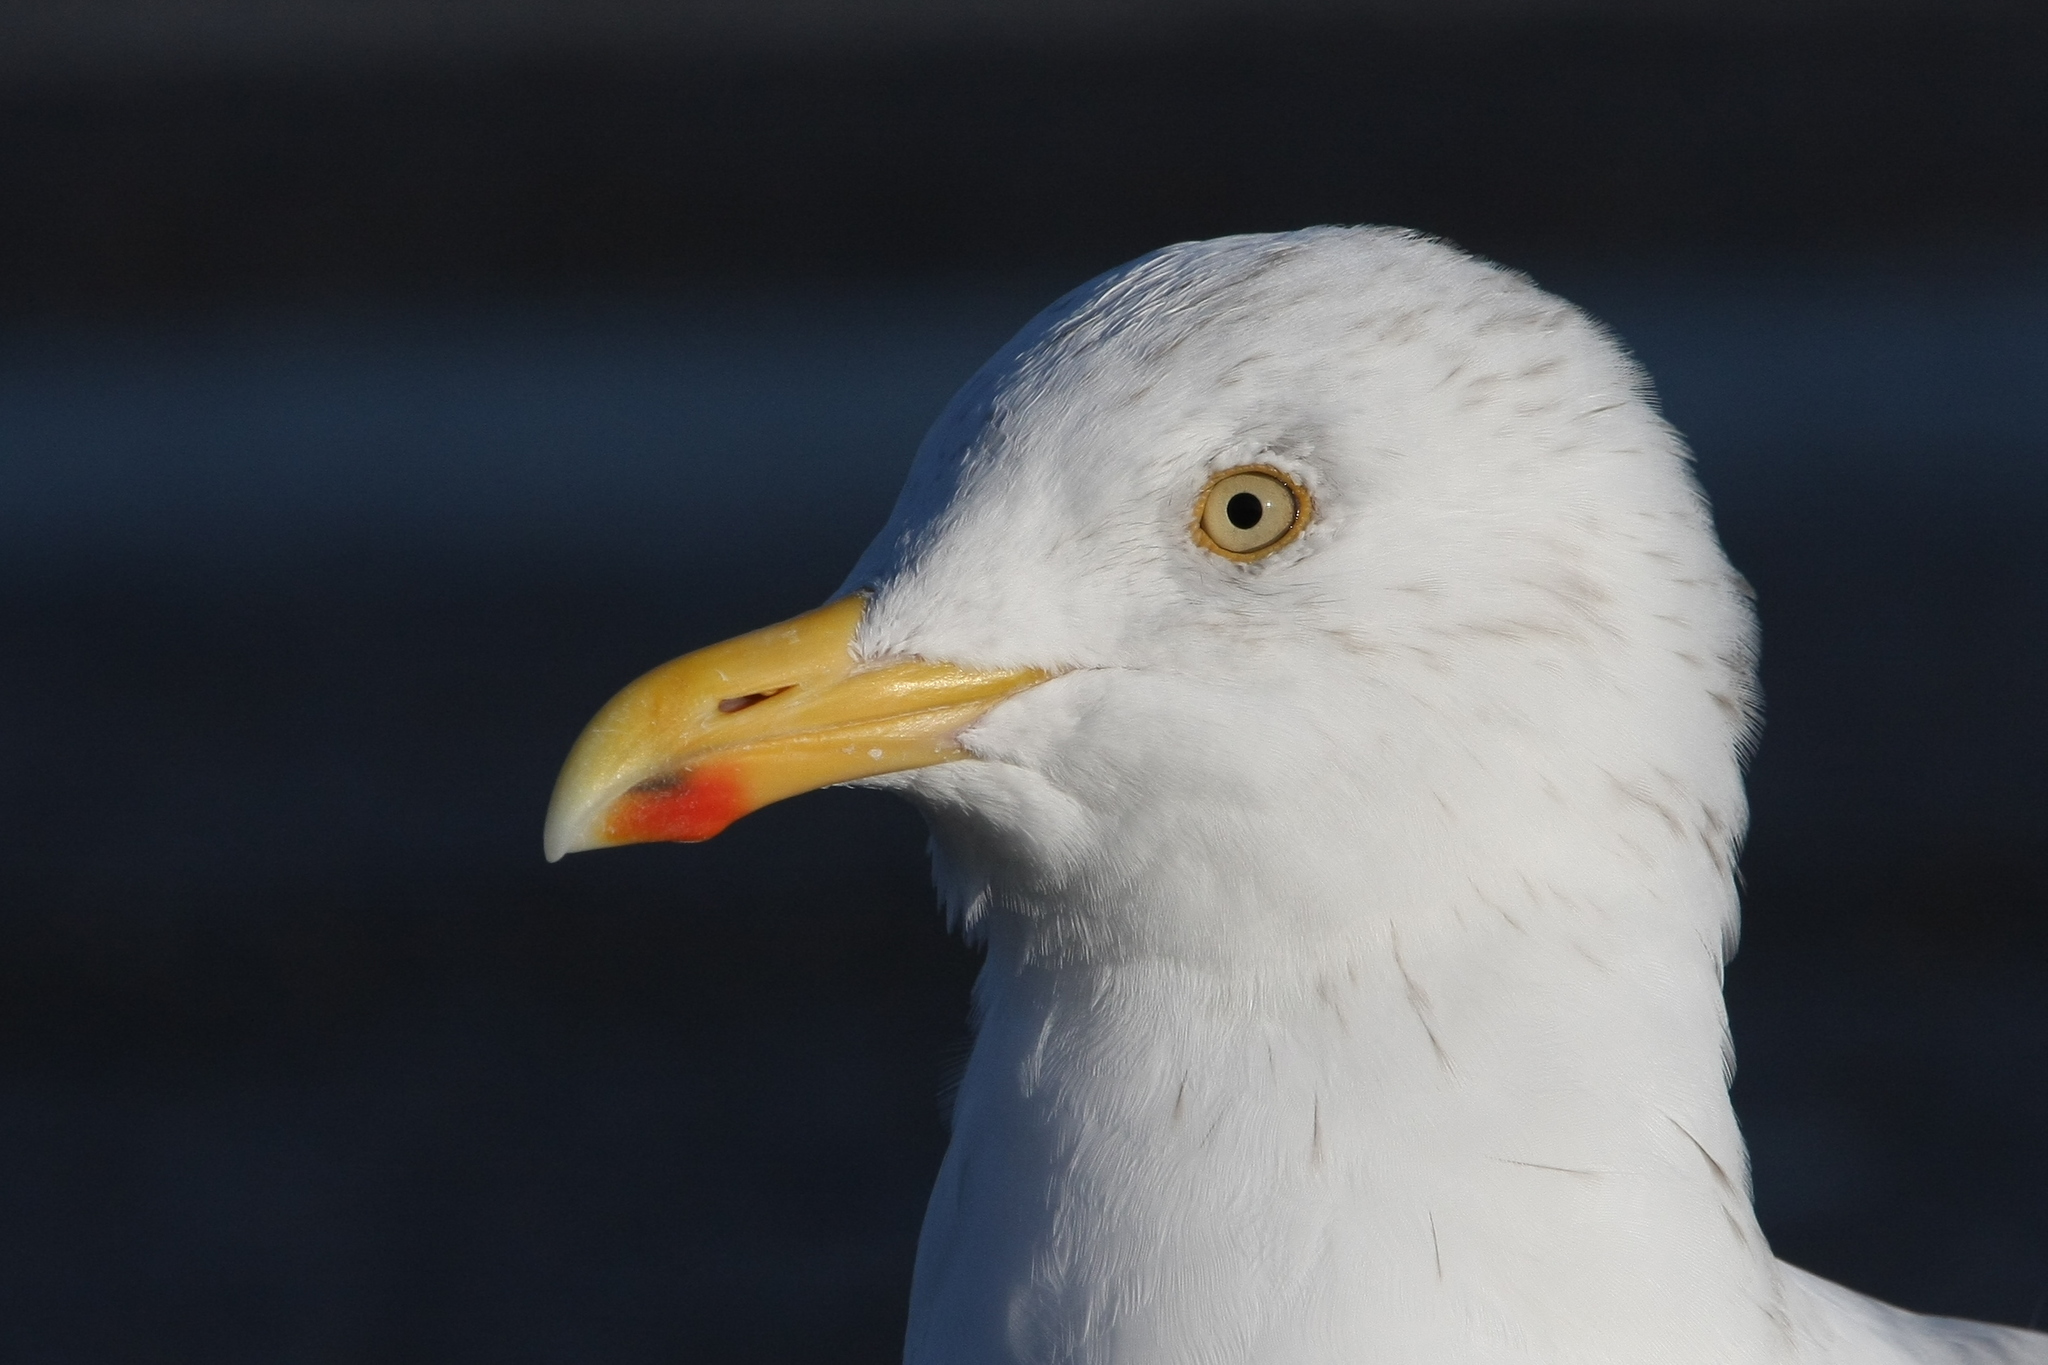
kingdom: Animalia
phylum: Chordata
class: Aves
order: Charadriiformes
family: Laridae
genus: Larus
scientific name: Larus argentatus
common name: Herring gull
